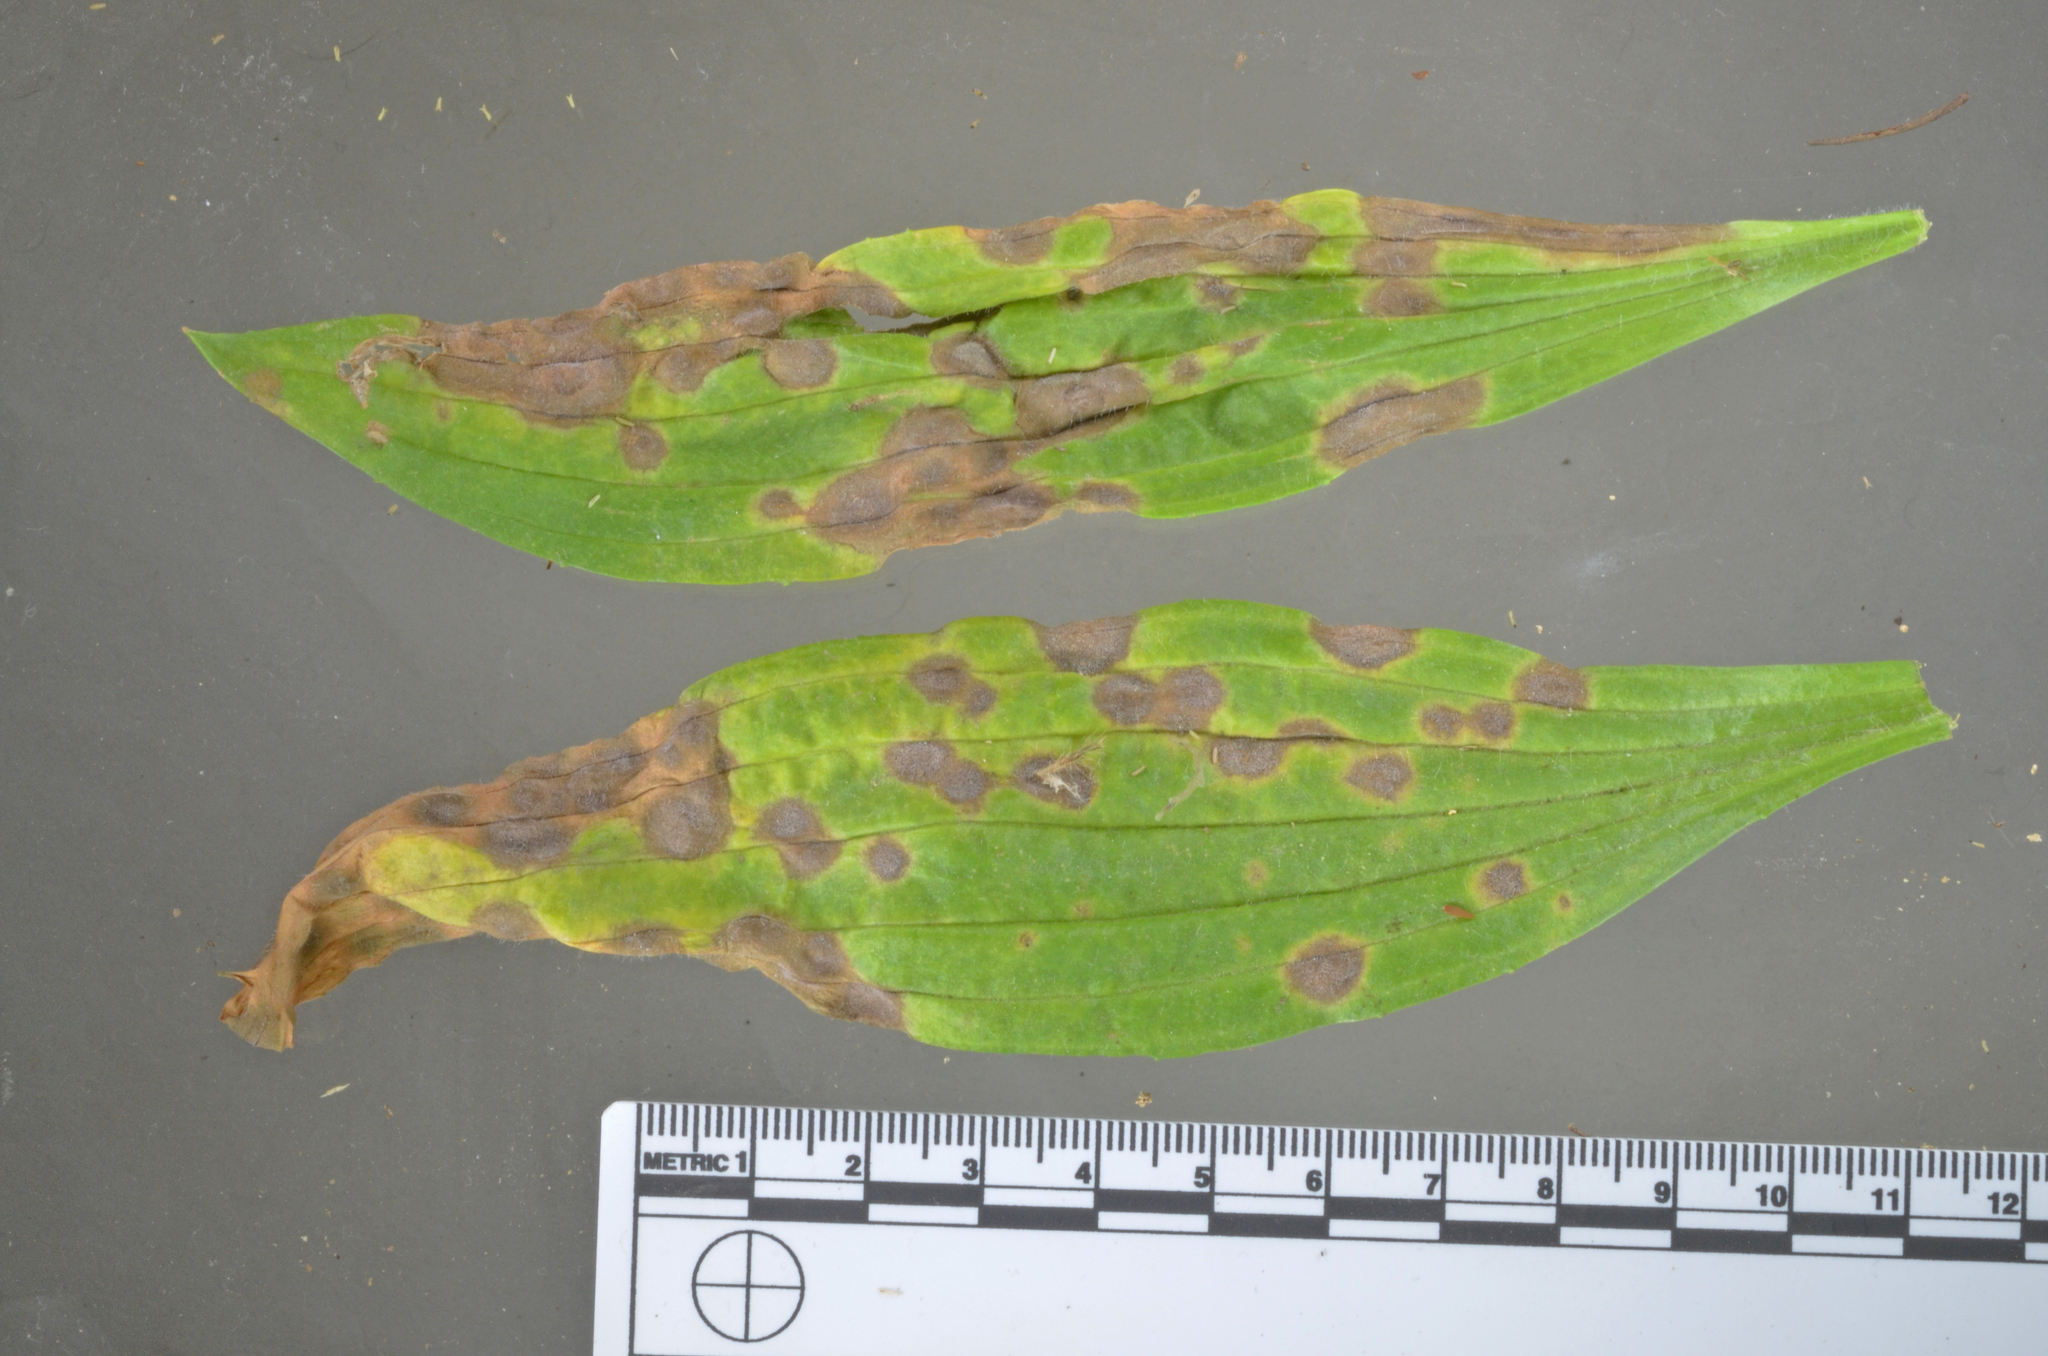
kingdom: Fungi
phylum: Ascomycota
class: Dothideomycetes
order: Mycosphaerellales
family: Mycosphaerellaceae
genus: Ramularia
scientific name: Ramularia rhabdospora
